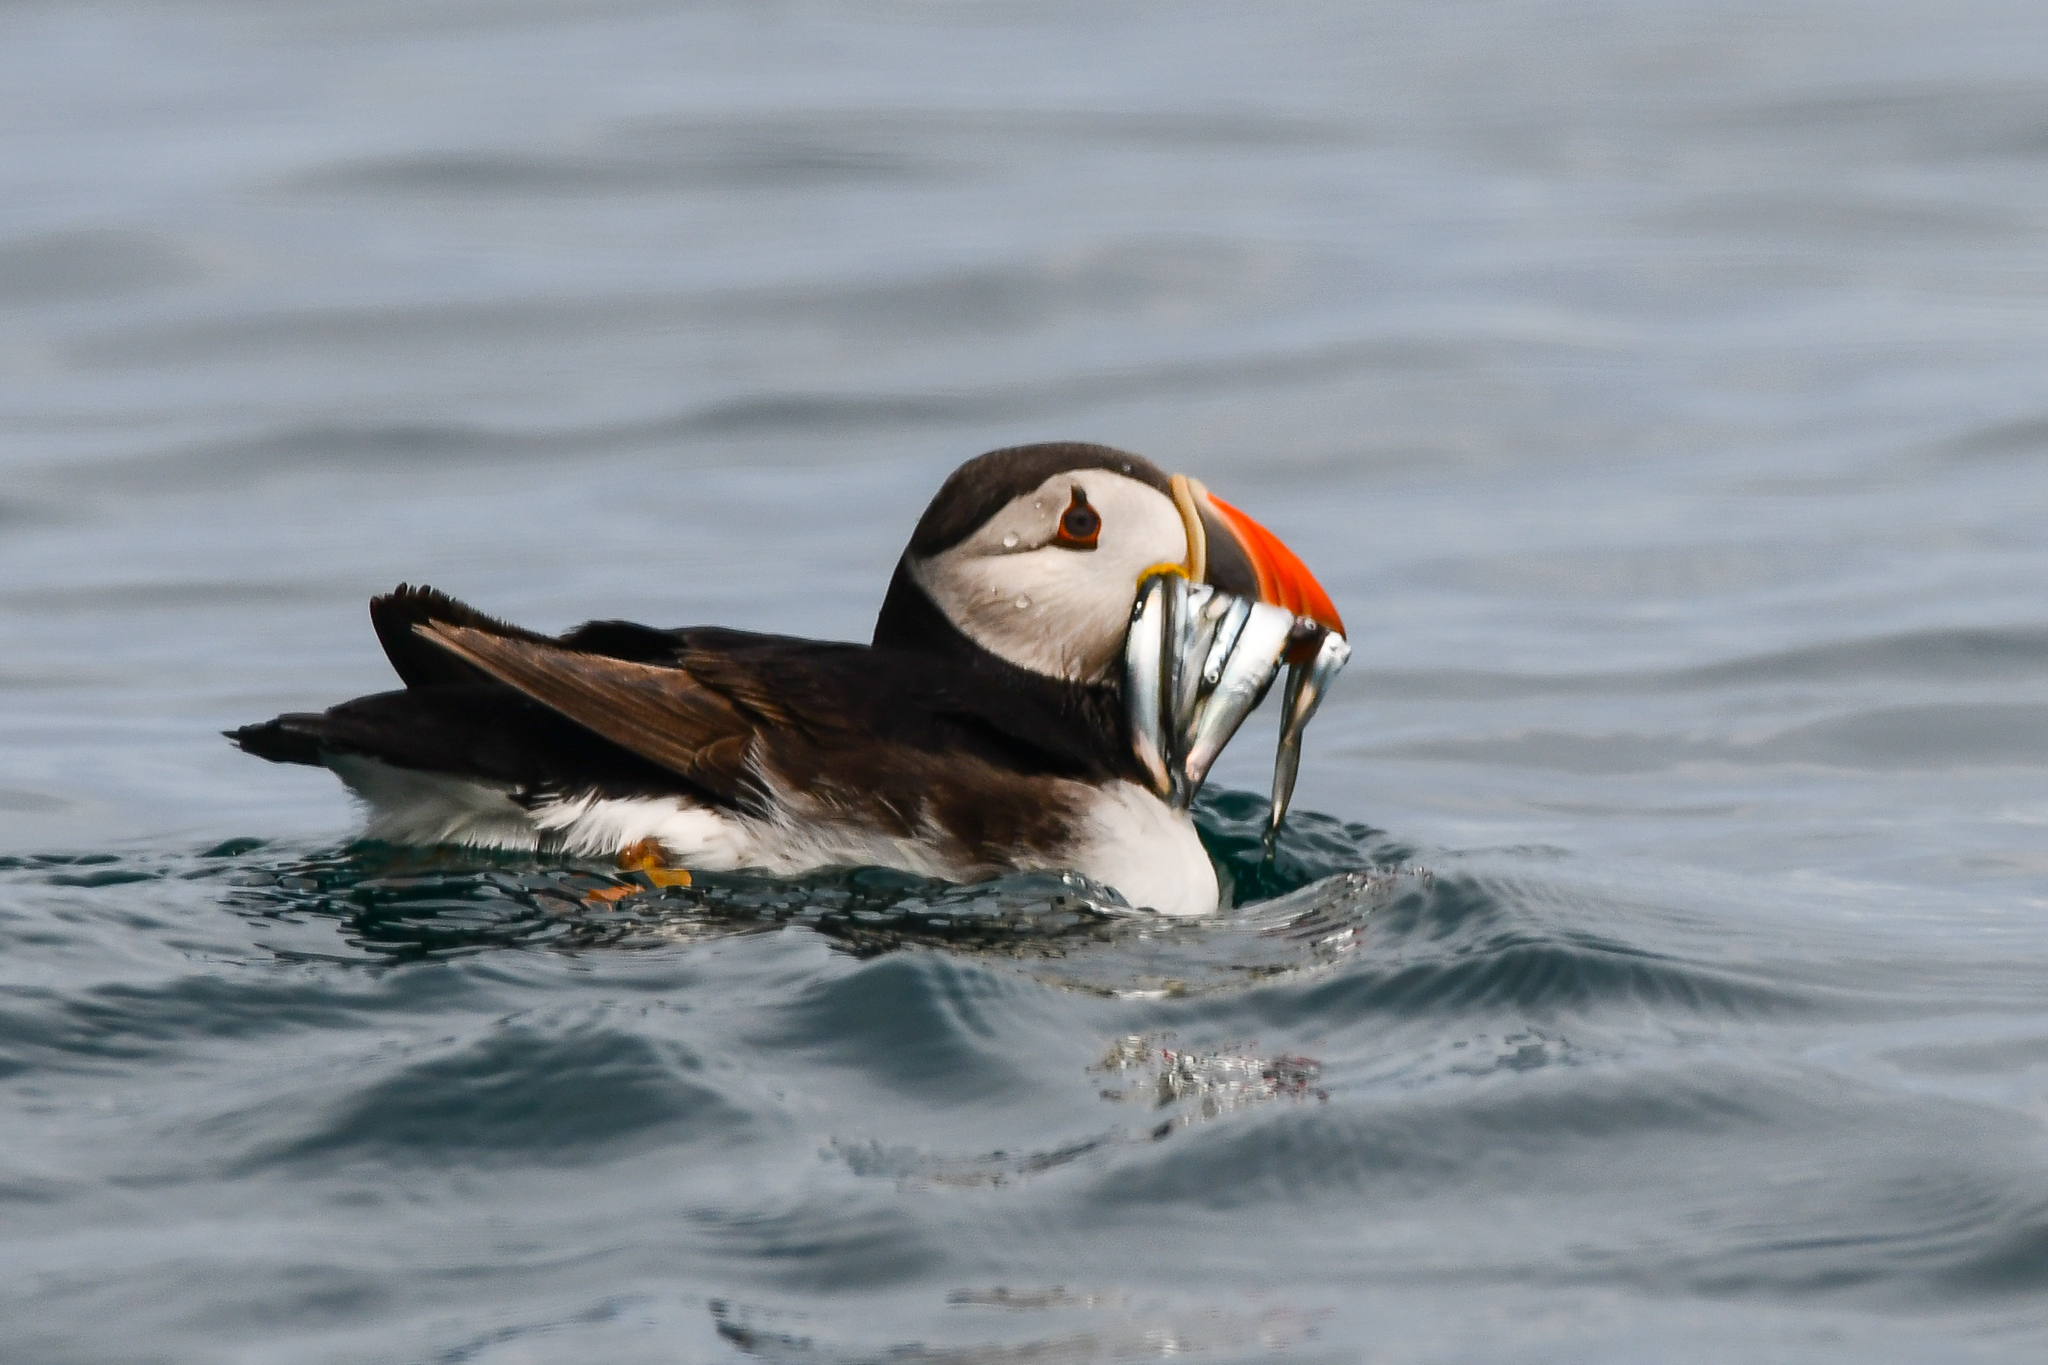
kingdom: Animalia
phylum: Chordata
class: Aves
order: Charadriiformes
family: Alcidae
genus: Fratercula
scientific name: Fratercula arctica
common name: Atlantic puffin
